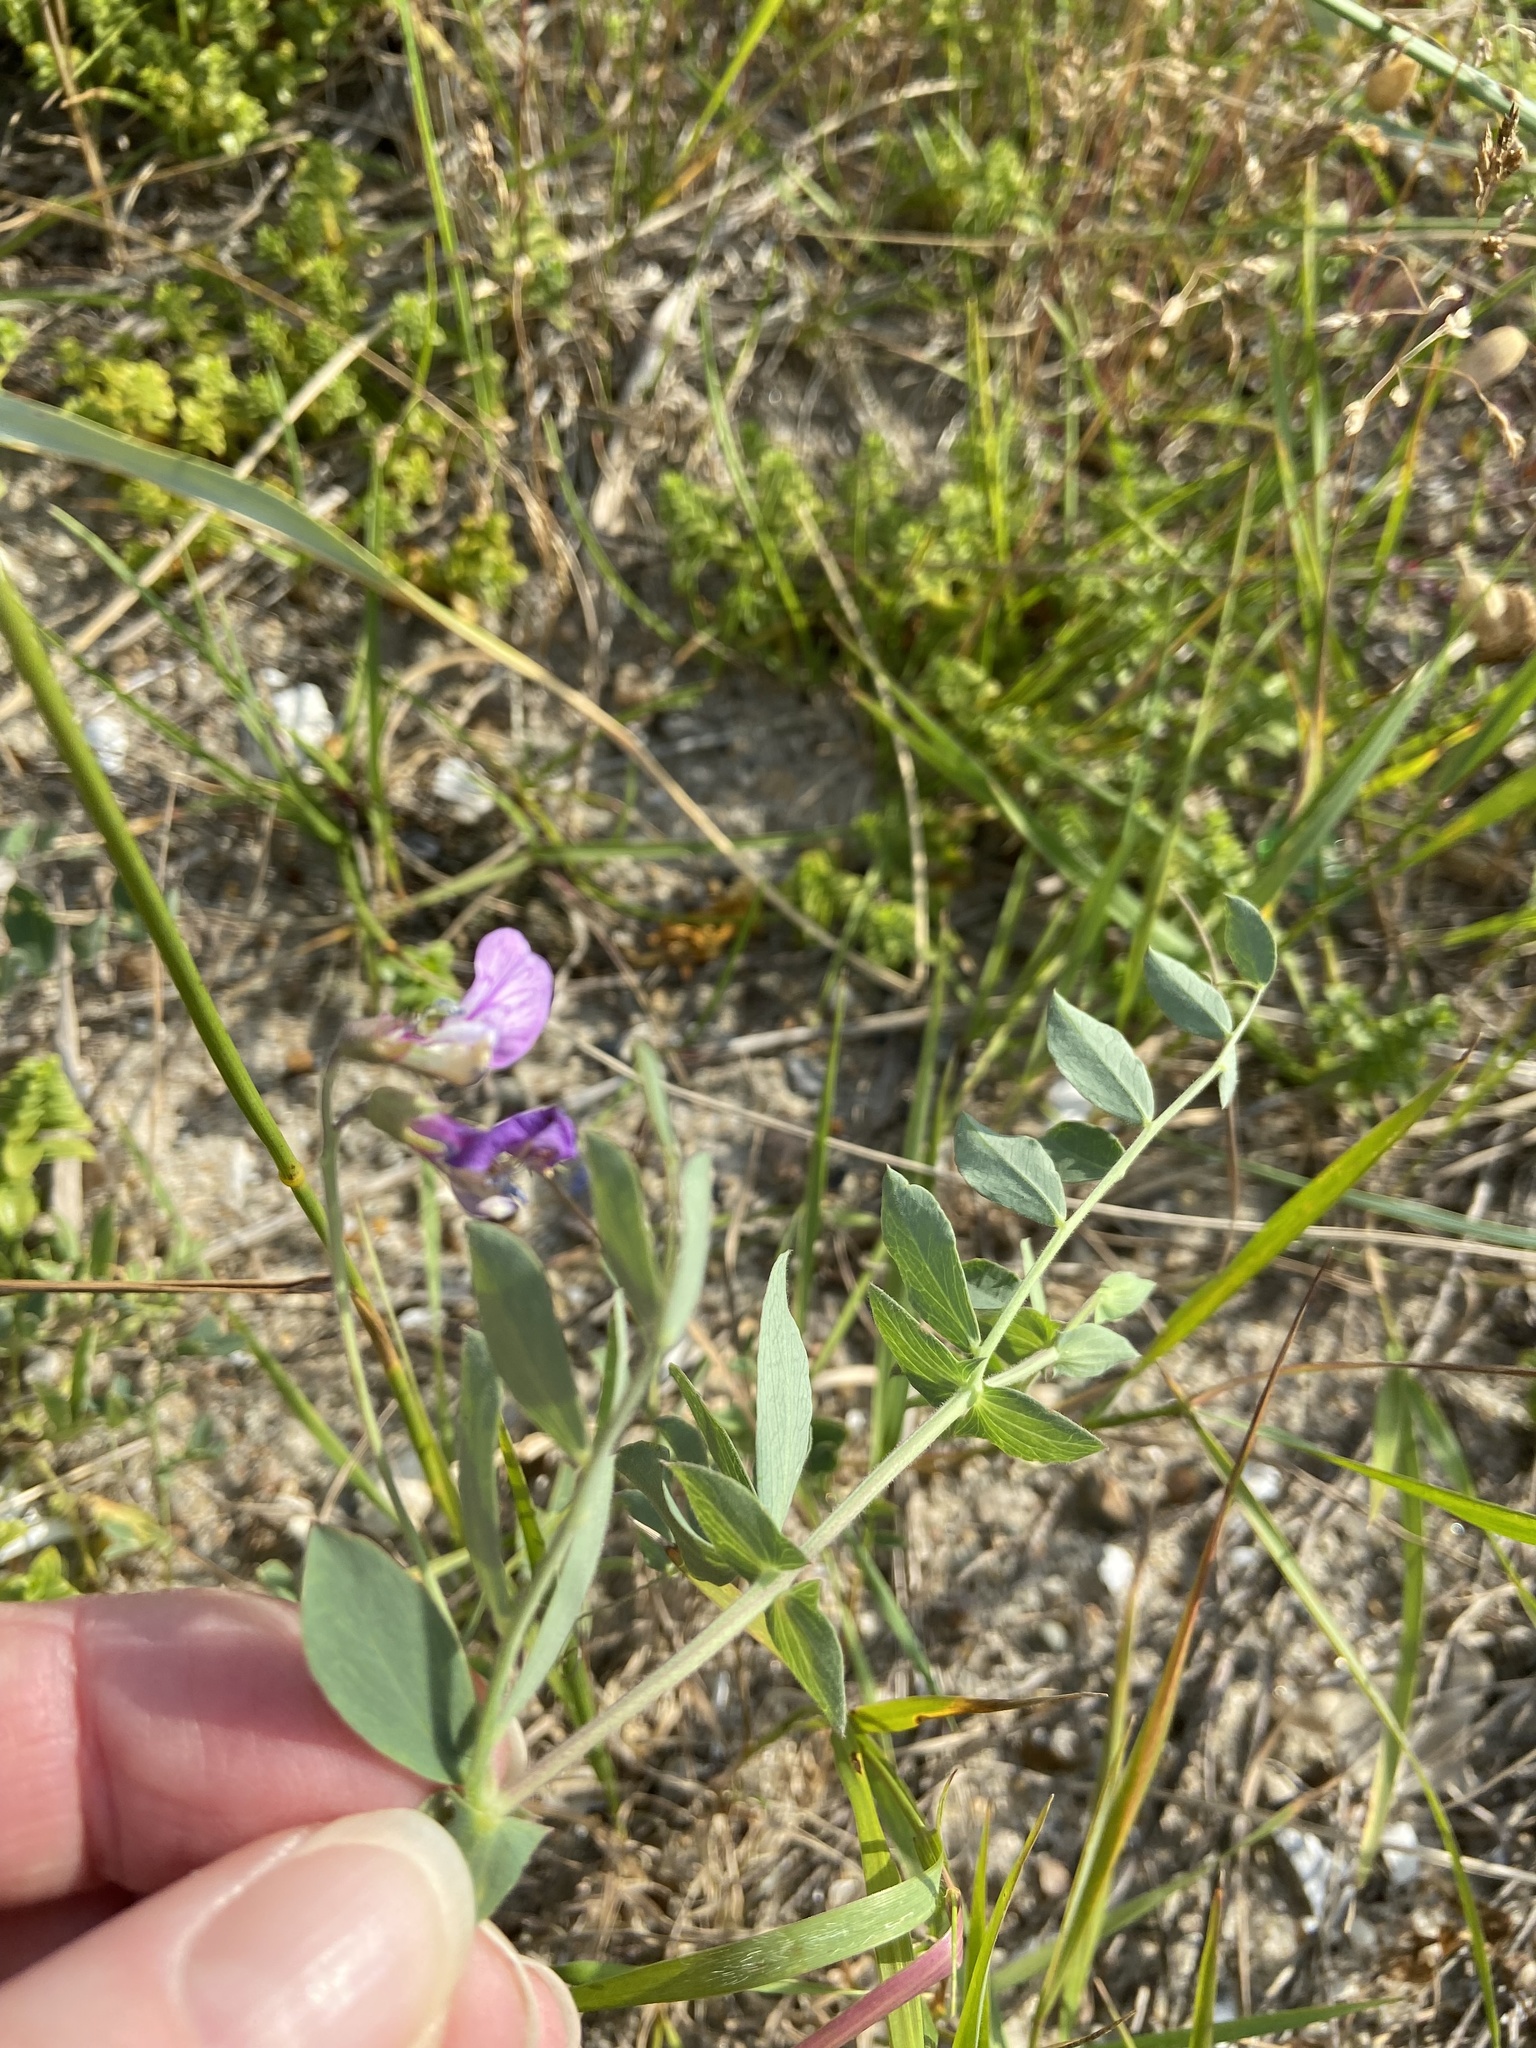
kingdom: Plantae
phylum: Tracheophyta
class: Magnoliopsida
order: Fabales
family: Fabaceae
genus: Lathyrus
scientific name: Lathyrus japonicus
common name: Sea pea
